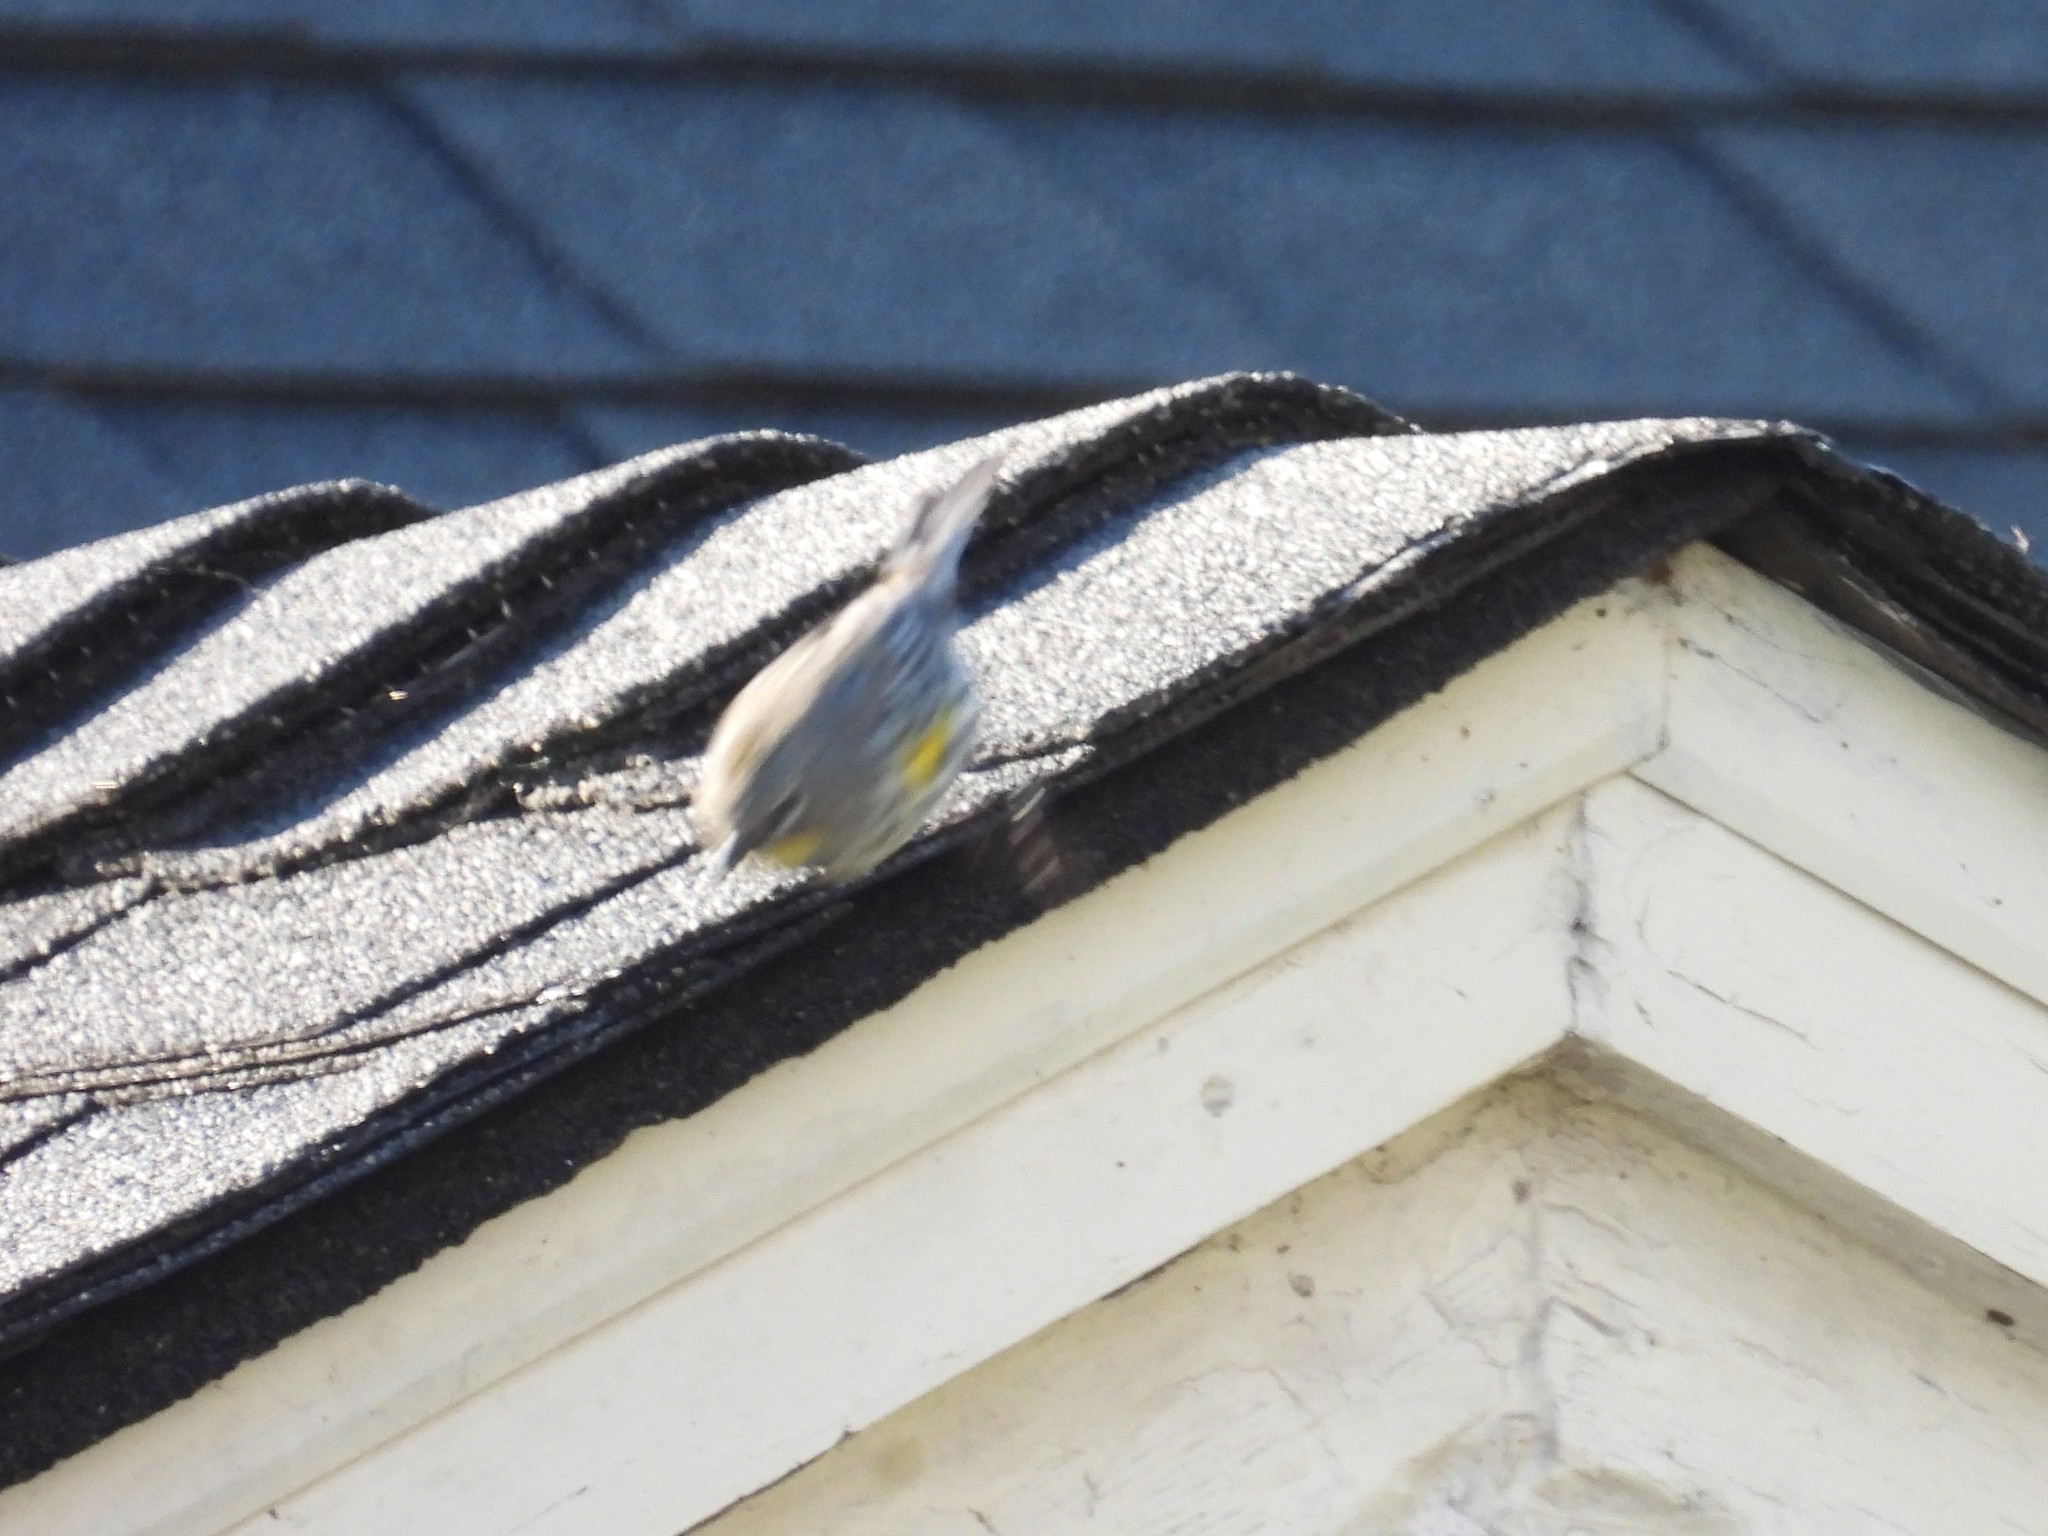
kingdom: Animalia
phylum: Chordata
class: Aves
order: Passeriformes
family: Parulidae
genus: Setophaga
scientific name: Setophaga coronata
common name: Myrtle warbler
